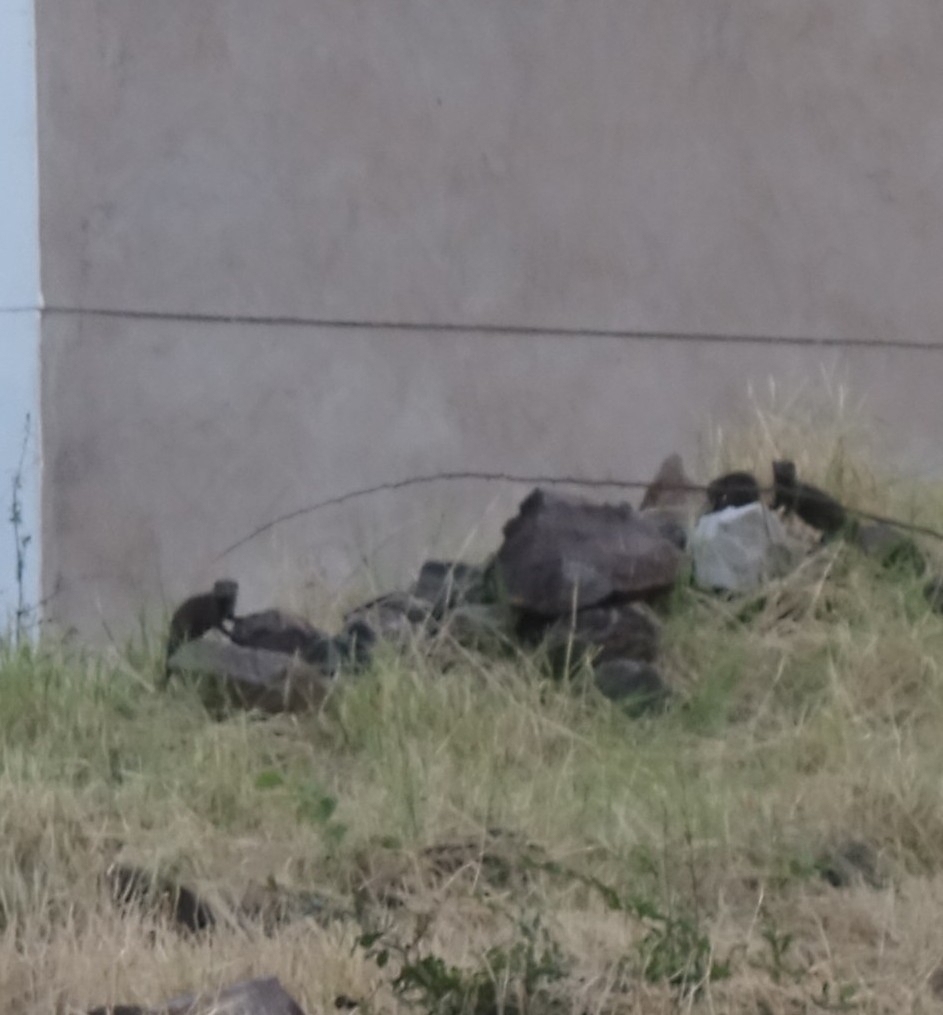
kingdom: Animalia
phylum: Chordata
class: Mammalia
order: Carnivora
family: Herpestidae
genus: Helogale
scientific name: Helogale parvula
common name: Common dwarf mongoose
